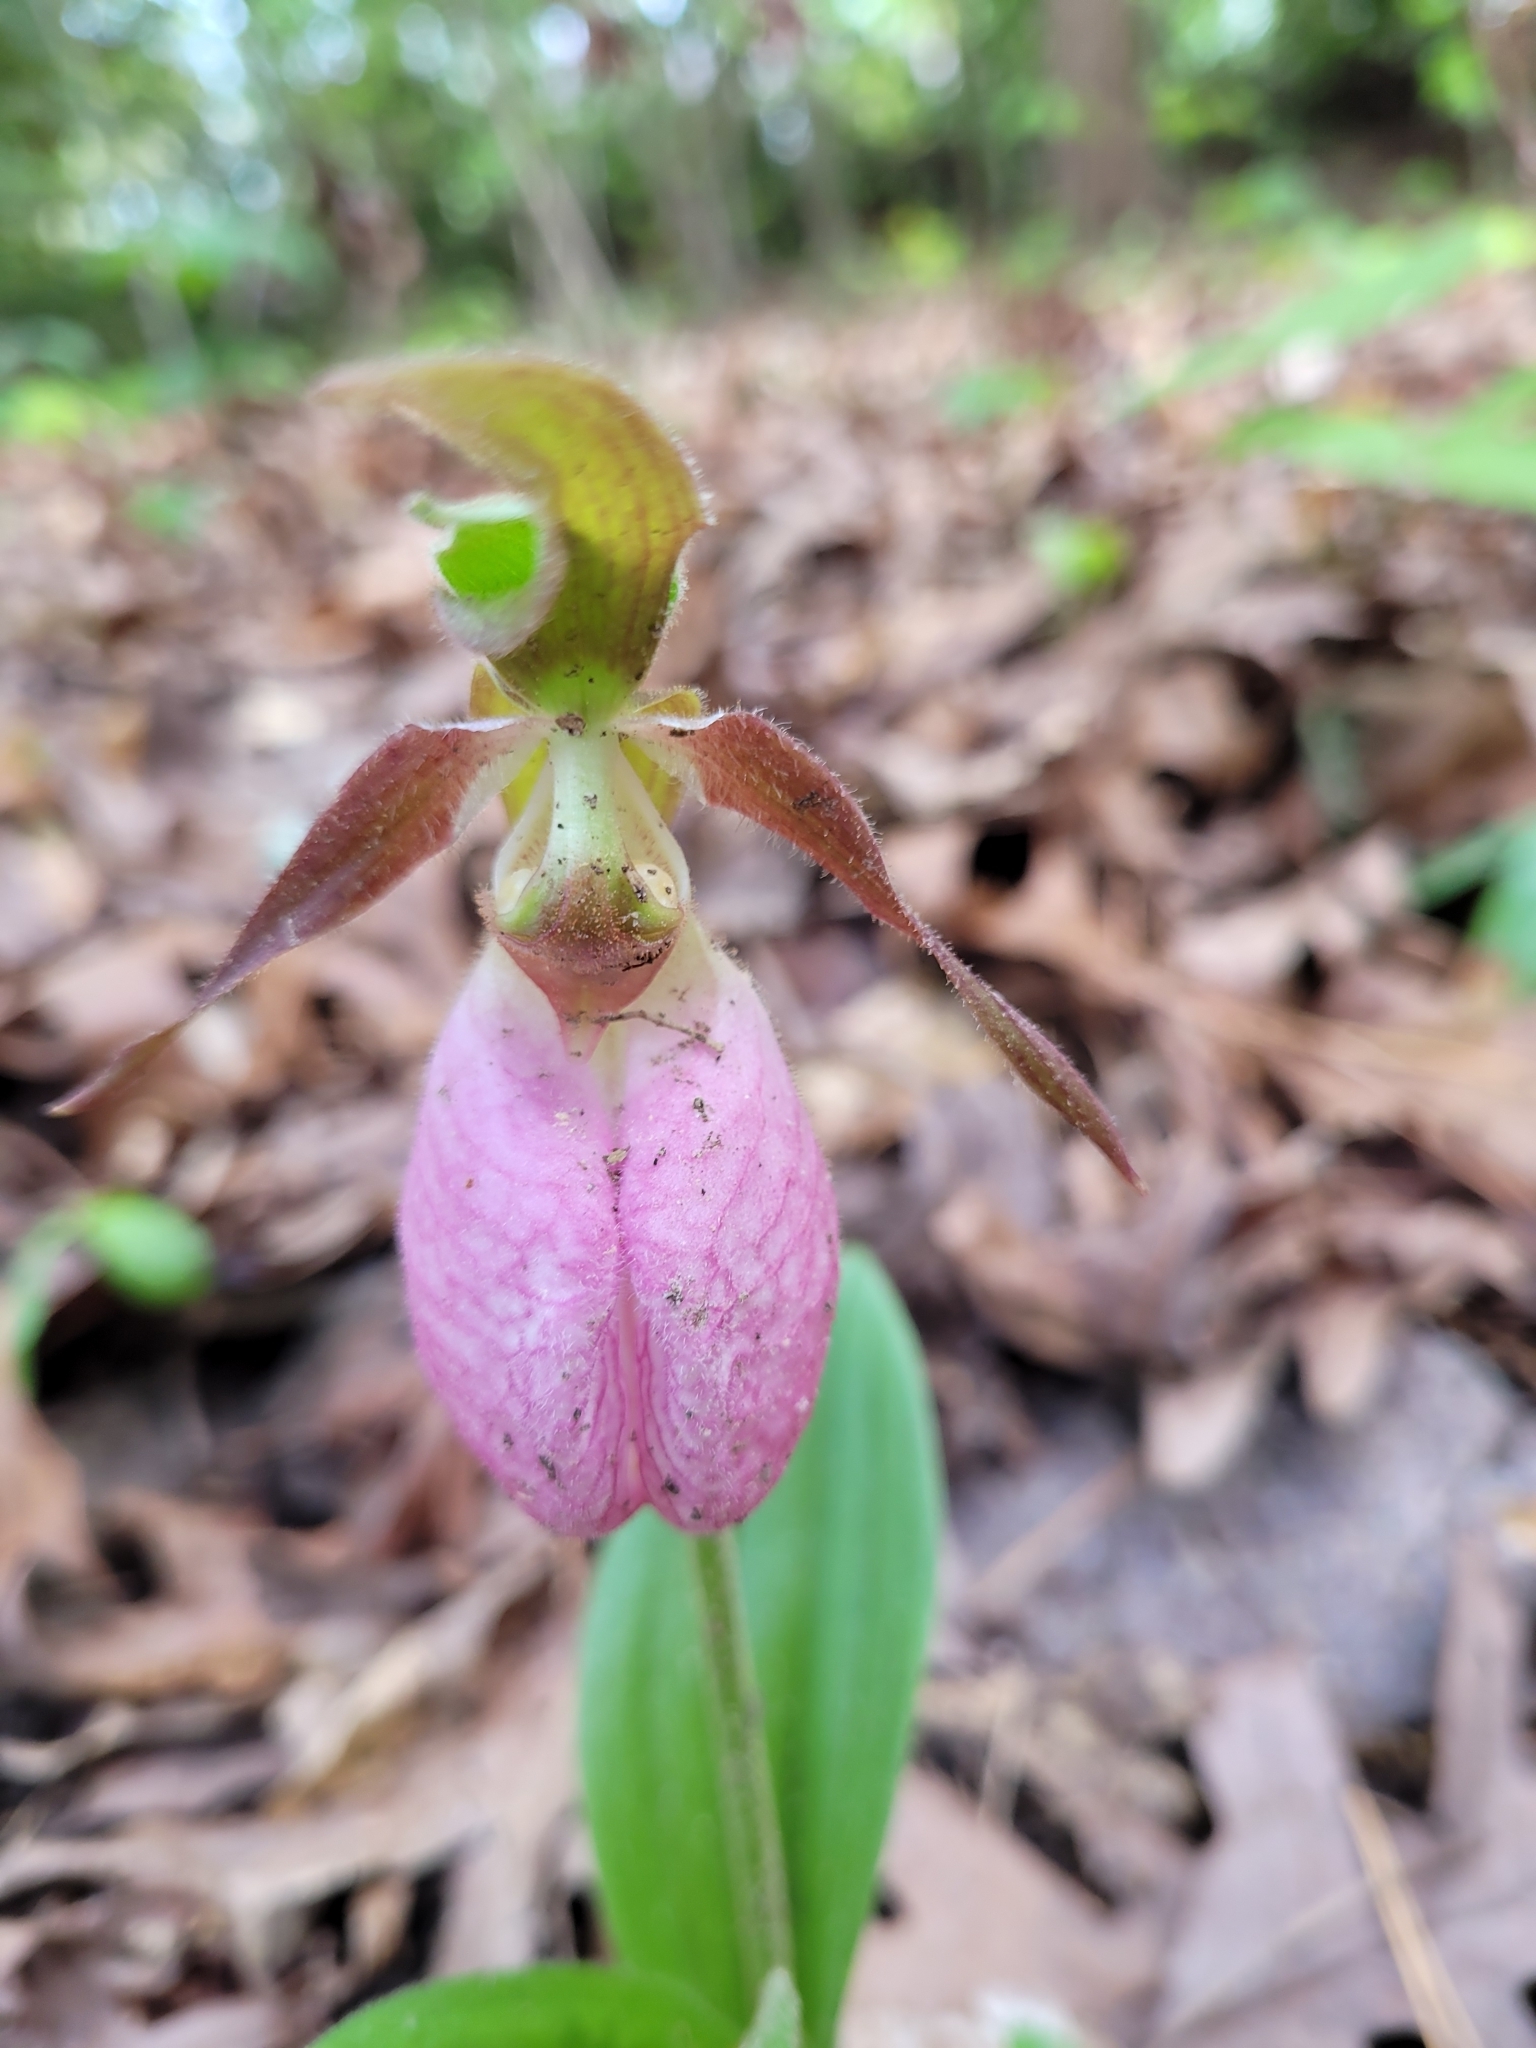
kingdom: Plantae
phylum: Tracheophyta
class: Liliopsida
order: Asparagales
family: Orchidaceae
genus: Cypripedium
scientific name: Cypripedium acaule
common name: Pink lady's-slipper
